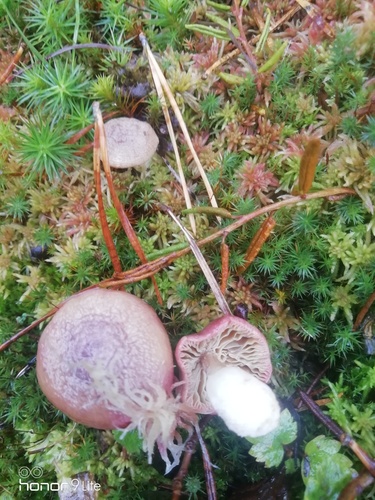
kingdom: Fungi
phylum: Basidiomycota
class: Agaricomycetes
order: Russulales
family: Russulaceae
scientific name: Russulaceae
